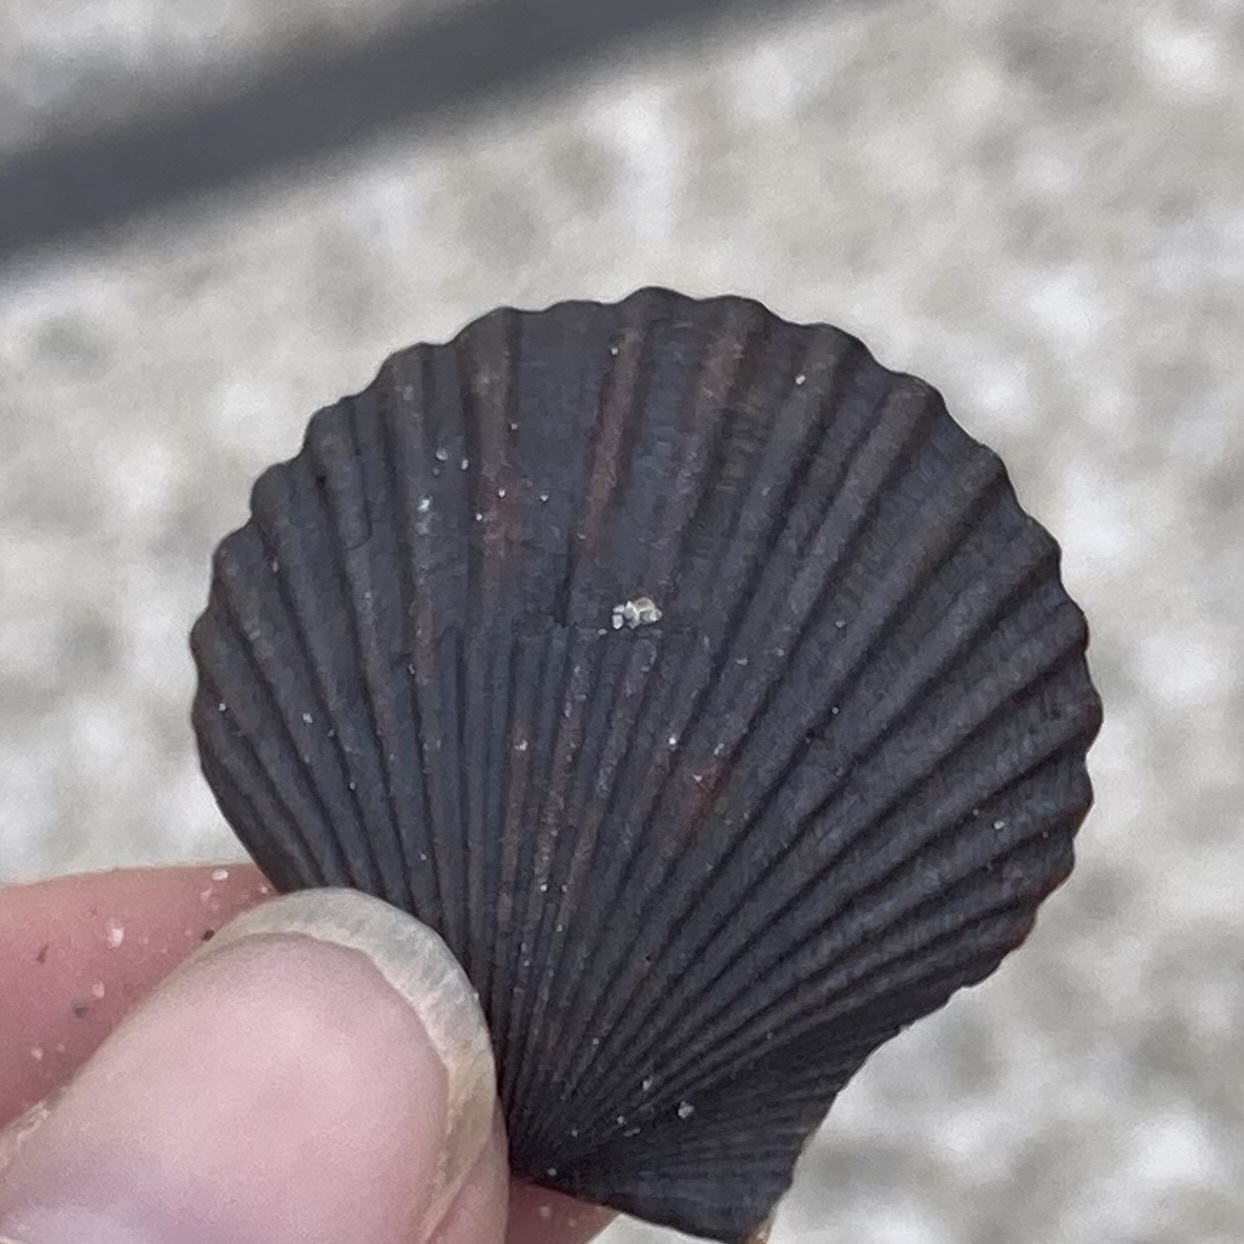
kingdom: Animalia
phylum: Mollusca
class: Bivalvia
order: Pectinida
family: Pectinidae
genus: Argopecten
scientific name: Argopecten irradians
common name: Atlantic bay scallop
